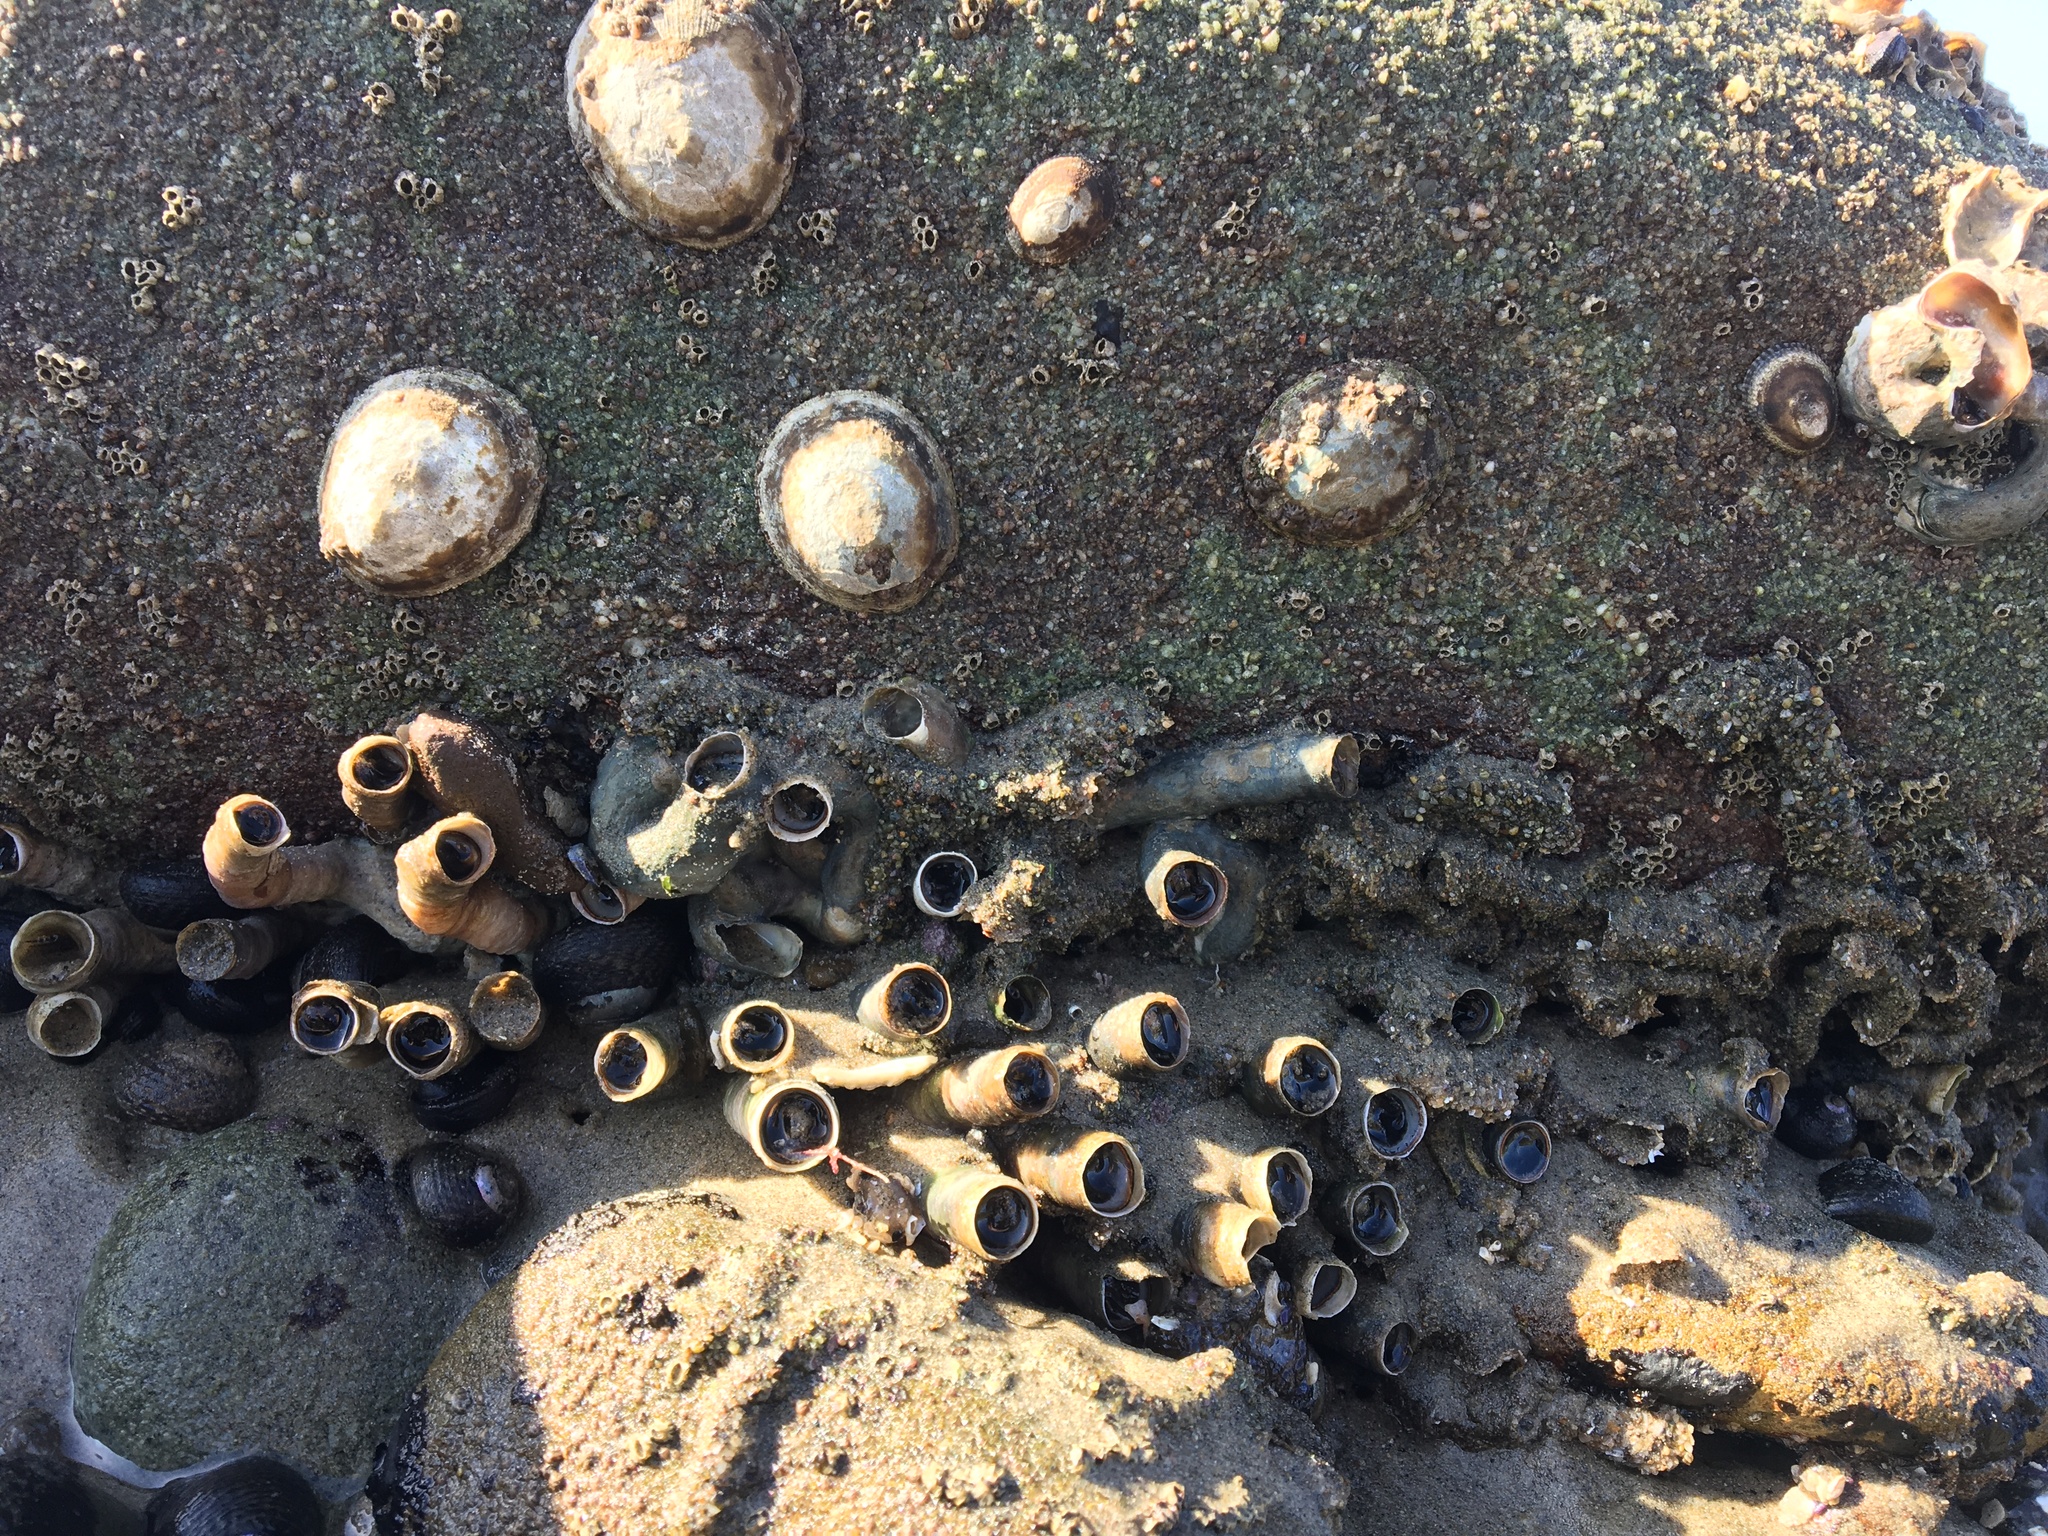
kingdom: Animalia
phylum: Mollusca
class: Gastropoda
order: Littorinimorpha
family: Vermetidae
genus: Thylacodes
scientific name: Thylacodes squamigerus
